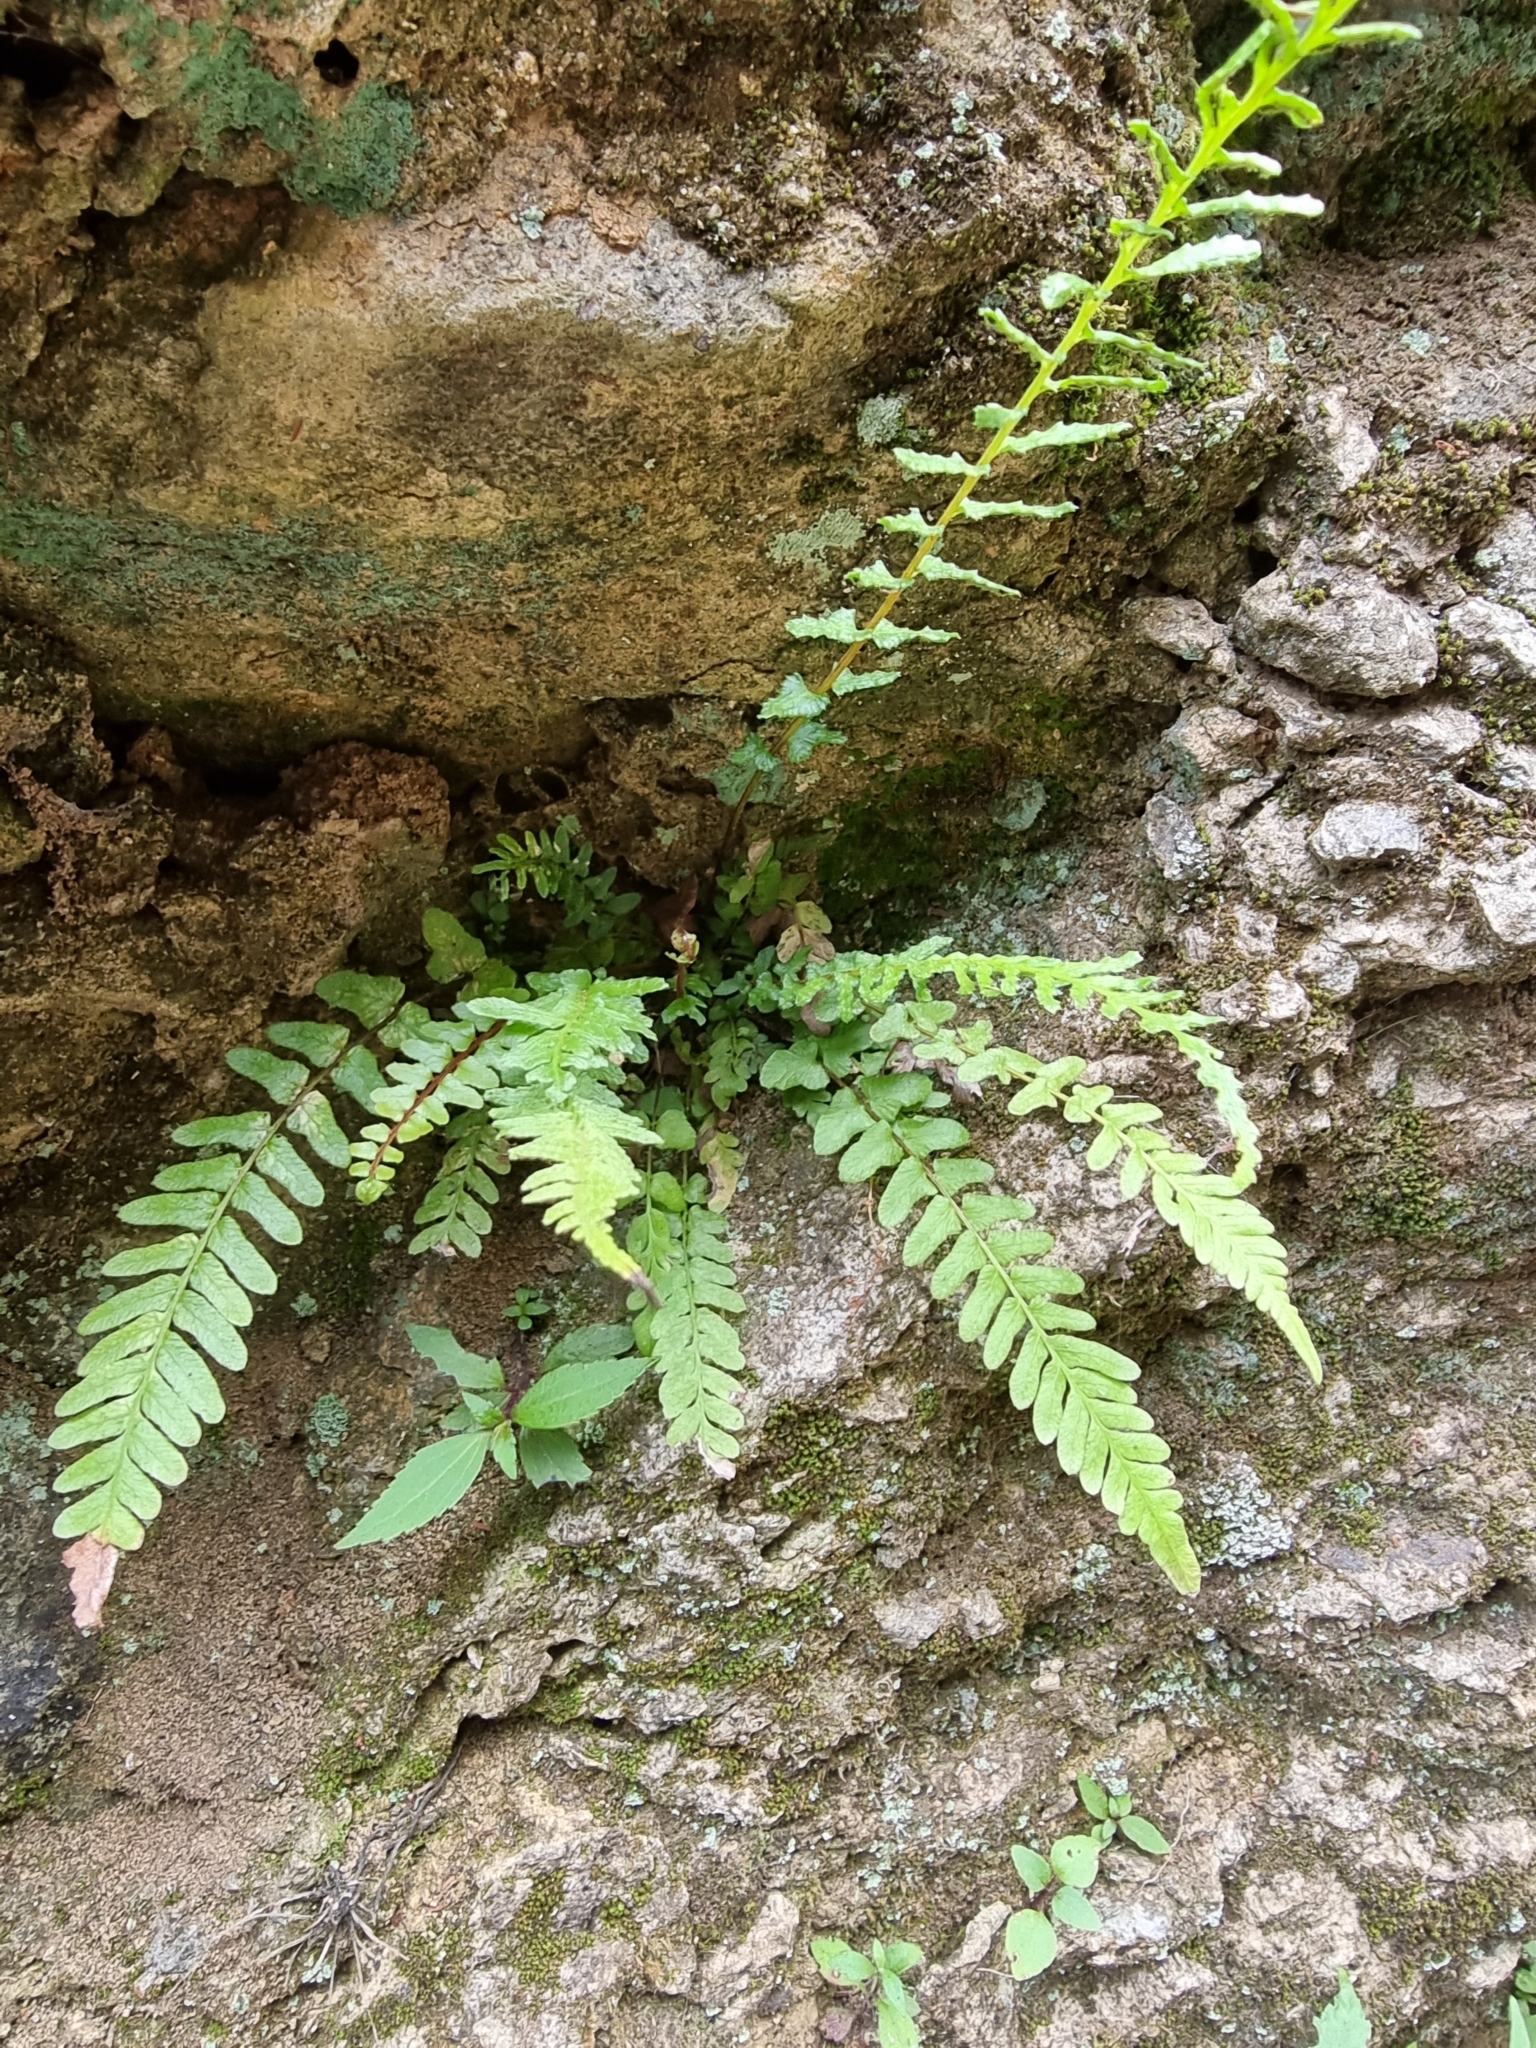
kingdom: Plantae
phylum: Tracheophyta
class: Polypodiopsida
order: Polypodiales
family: Blechnaceae
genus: Doodia
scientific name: Doodia caudata
